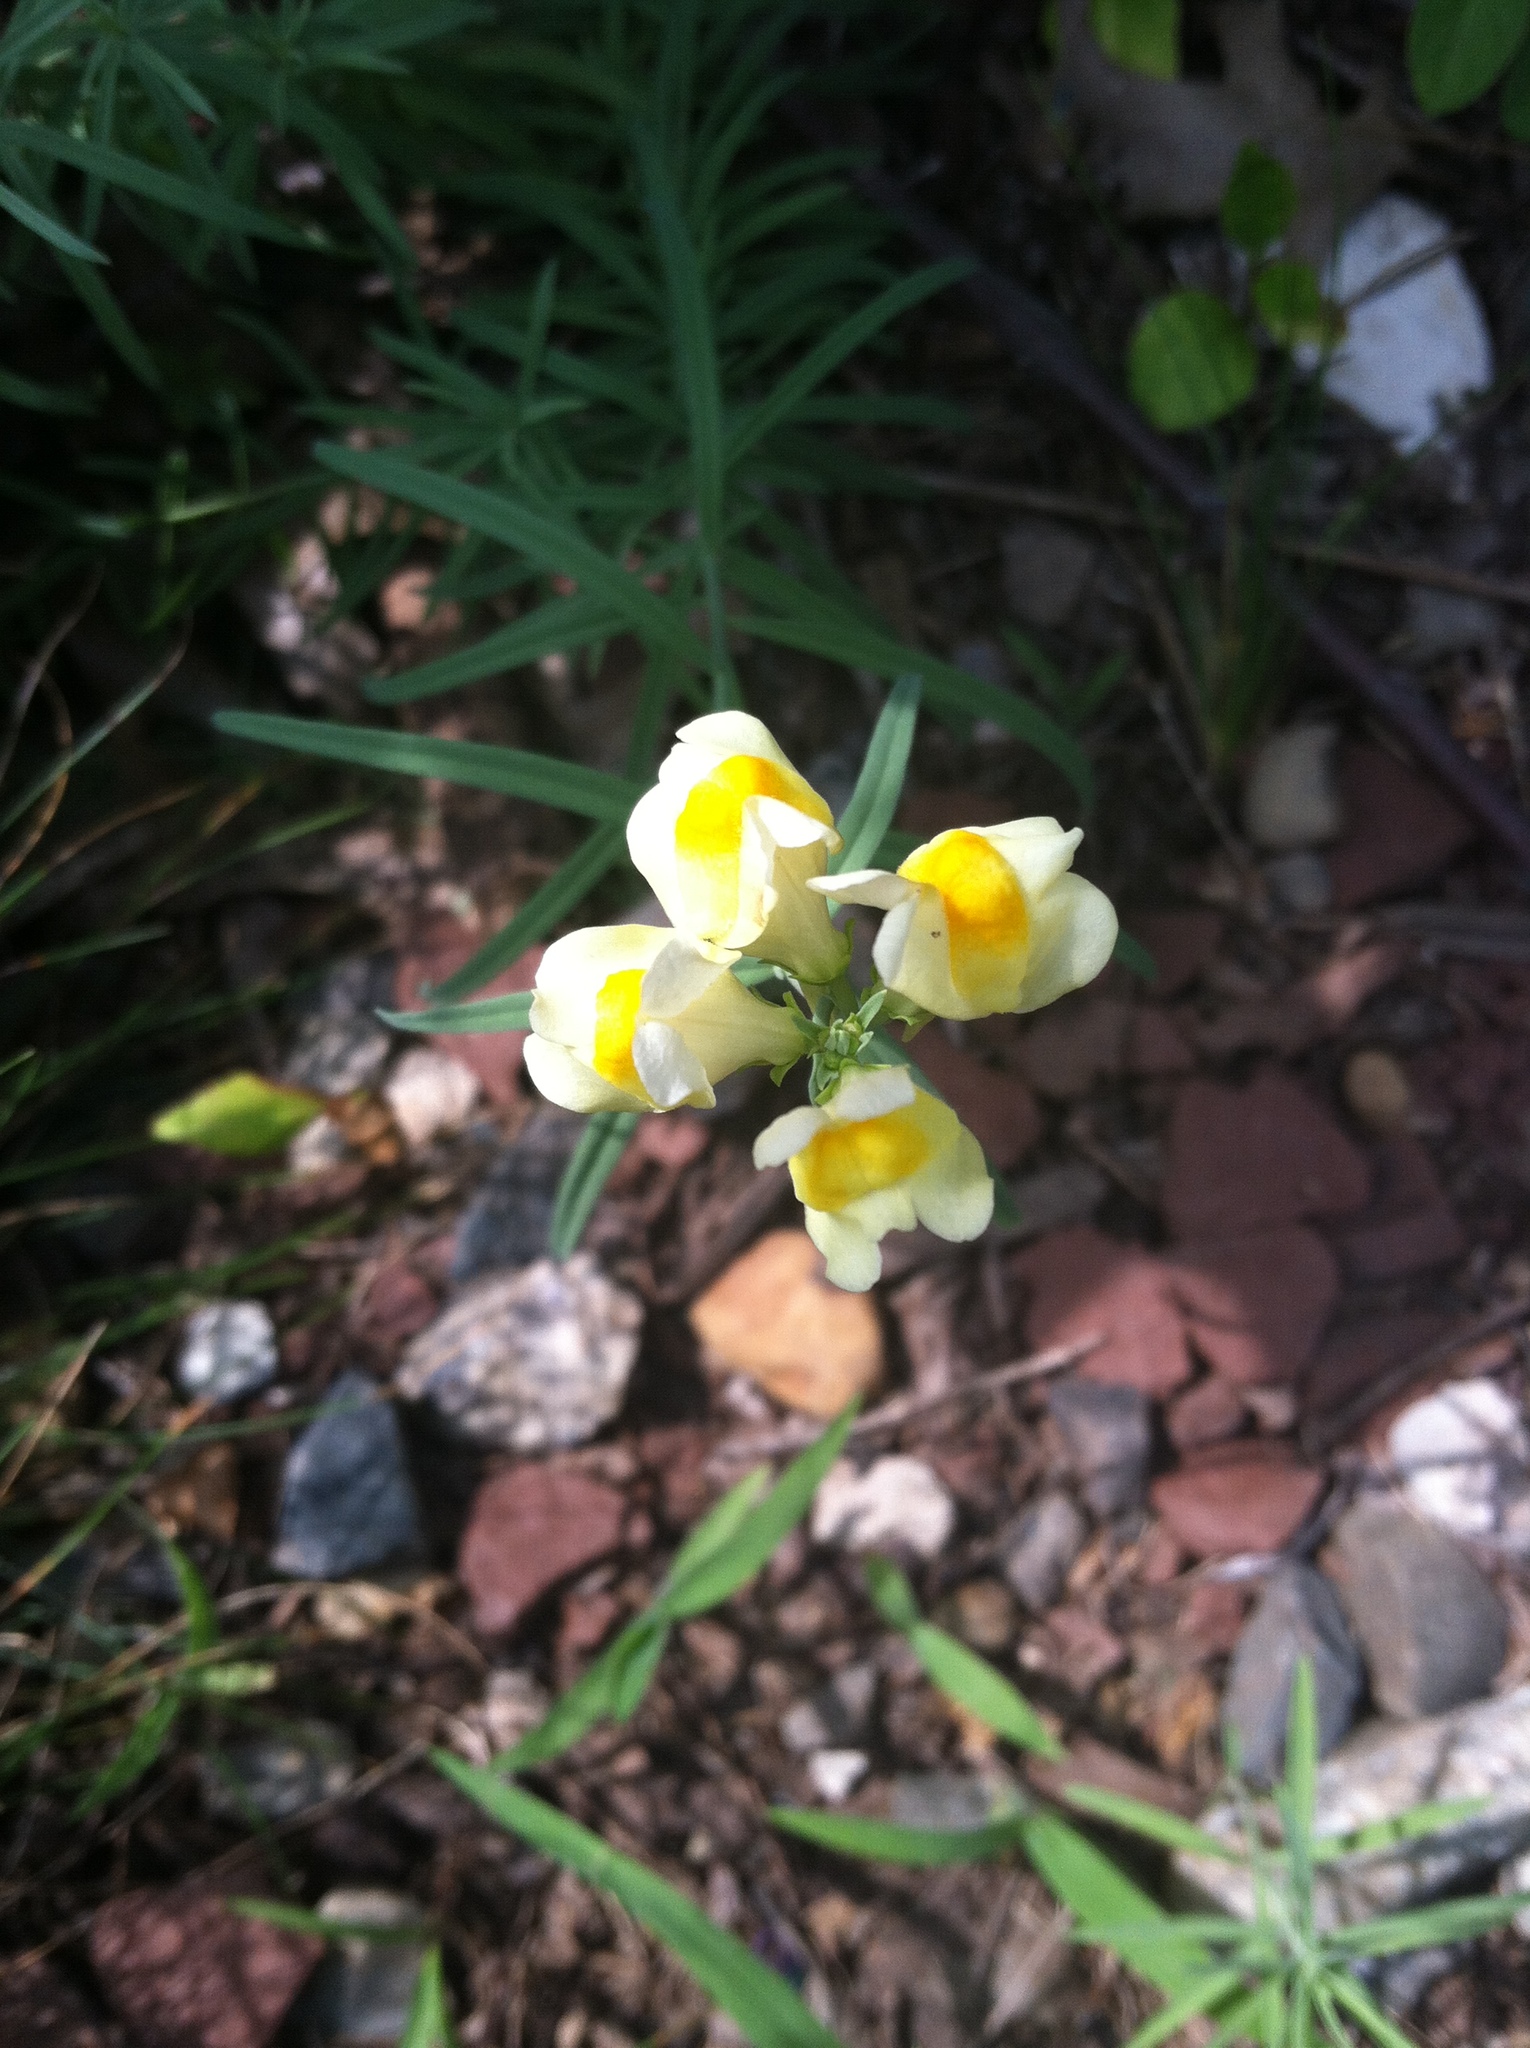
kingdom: Plantae
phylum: Tracheophyta
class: Magnoliopsida
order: Lamiales
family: Plantaginaceae
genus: Linaria
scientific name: Linaria vulgaris
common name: Butter and eggs
